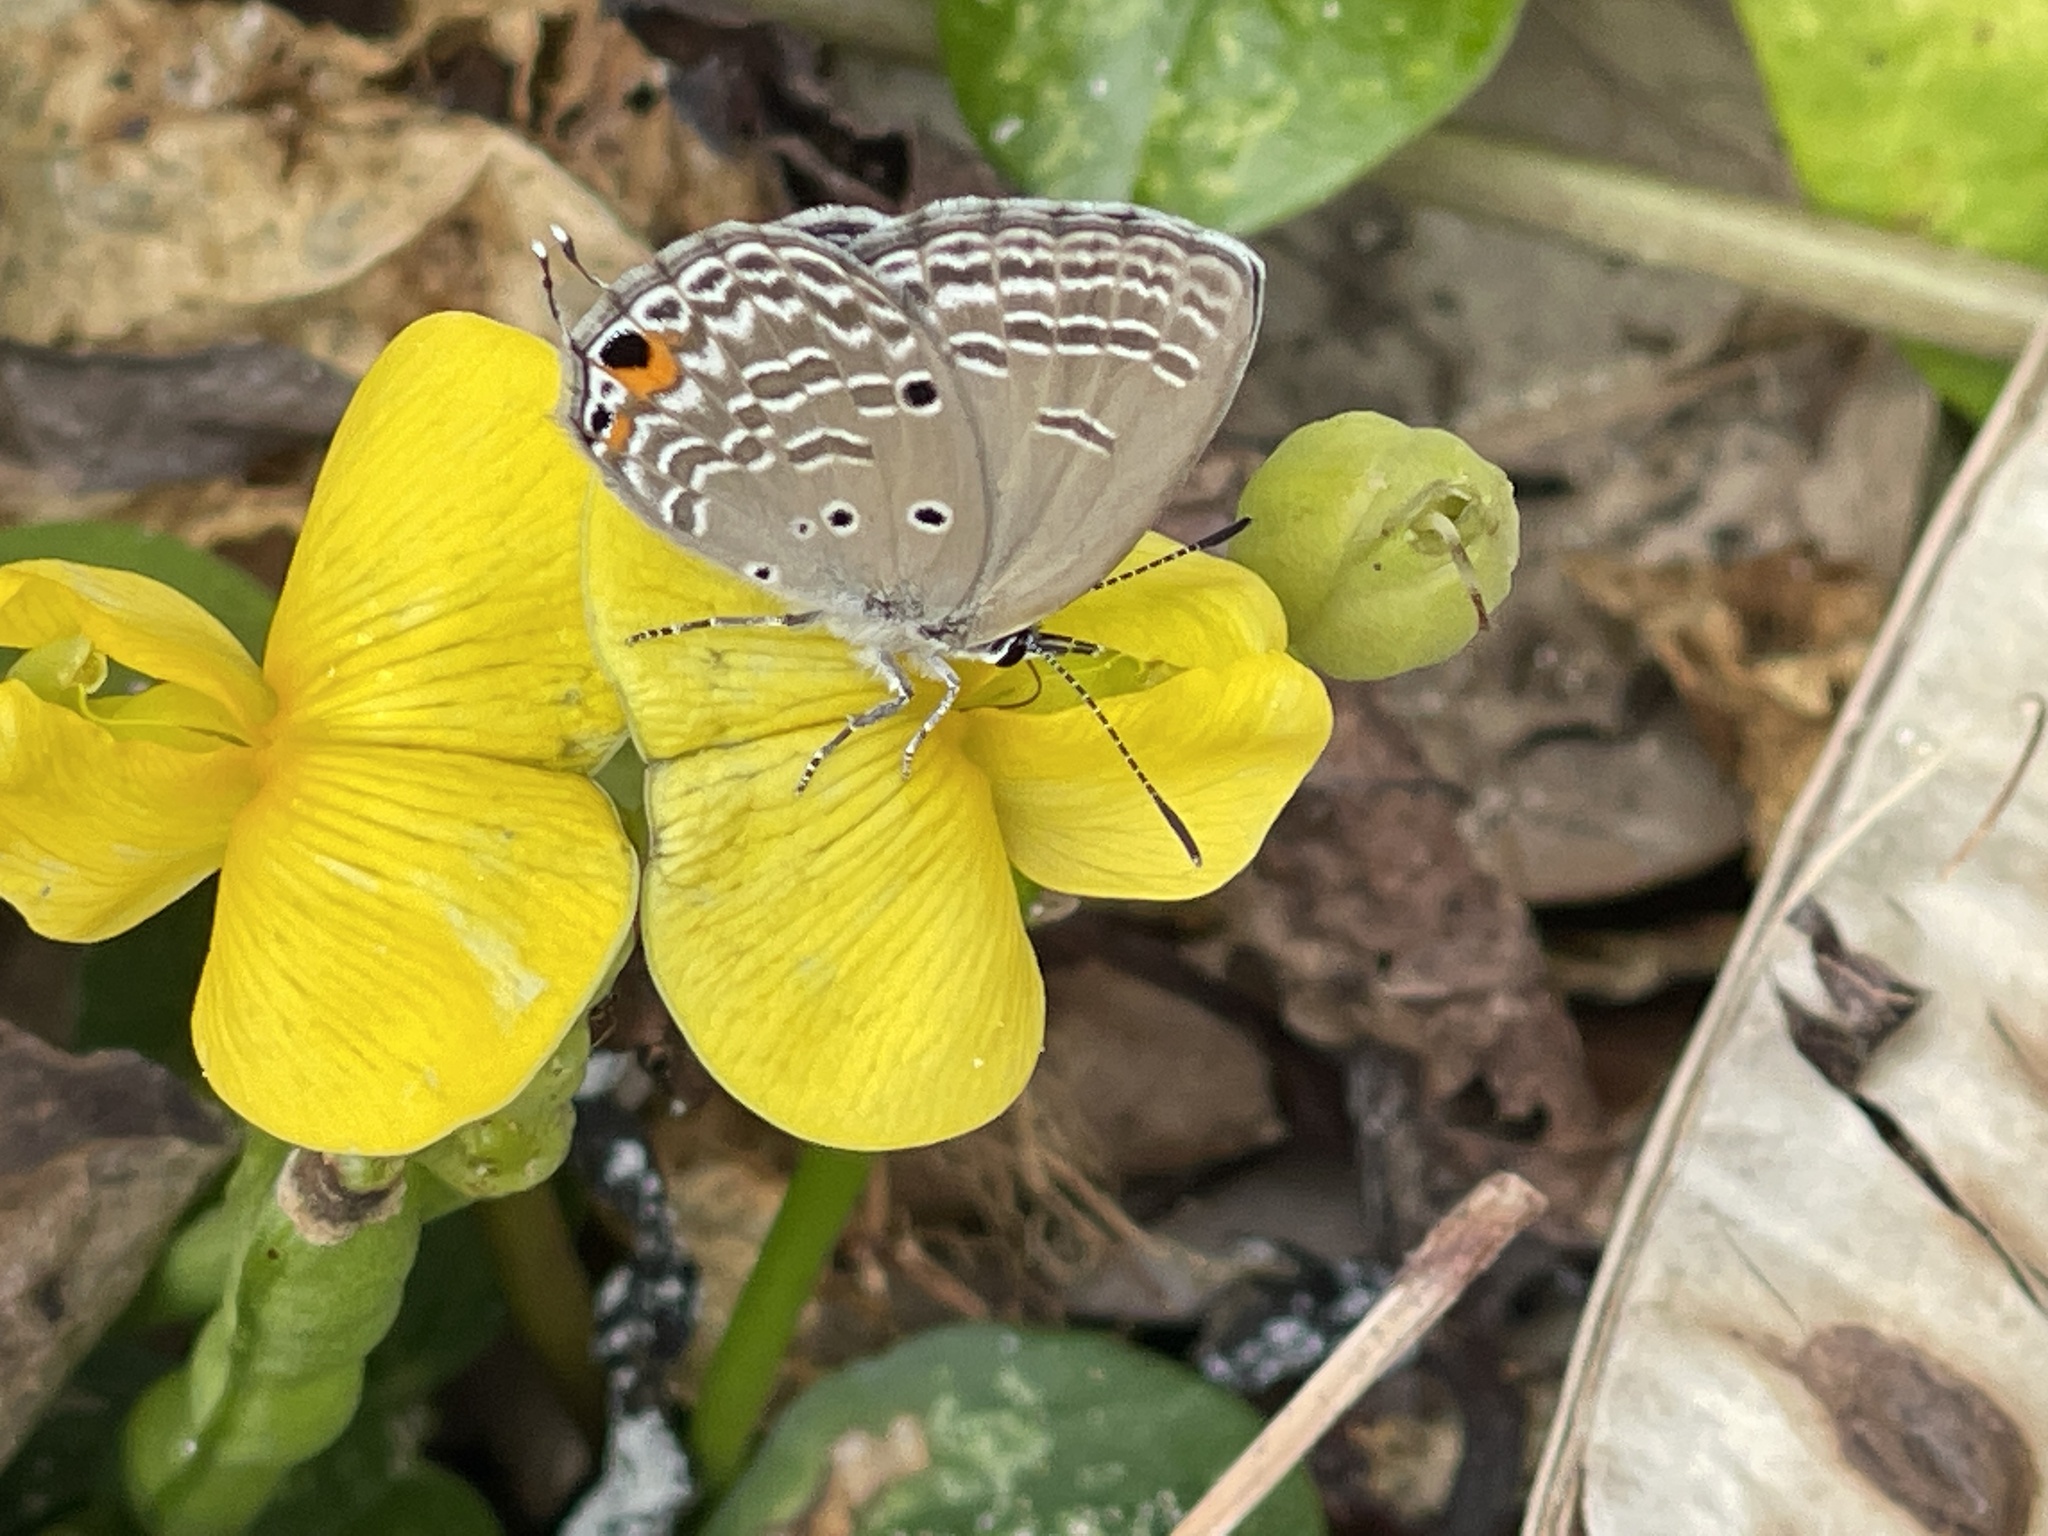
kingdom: Animalia
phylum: Arthropoda
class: Insecta
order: Lepidoptera
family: Lycaenidae
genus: Luthrodes
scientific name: Luthrodes pandava
